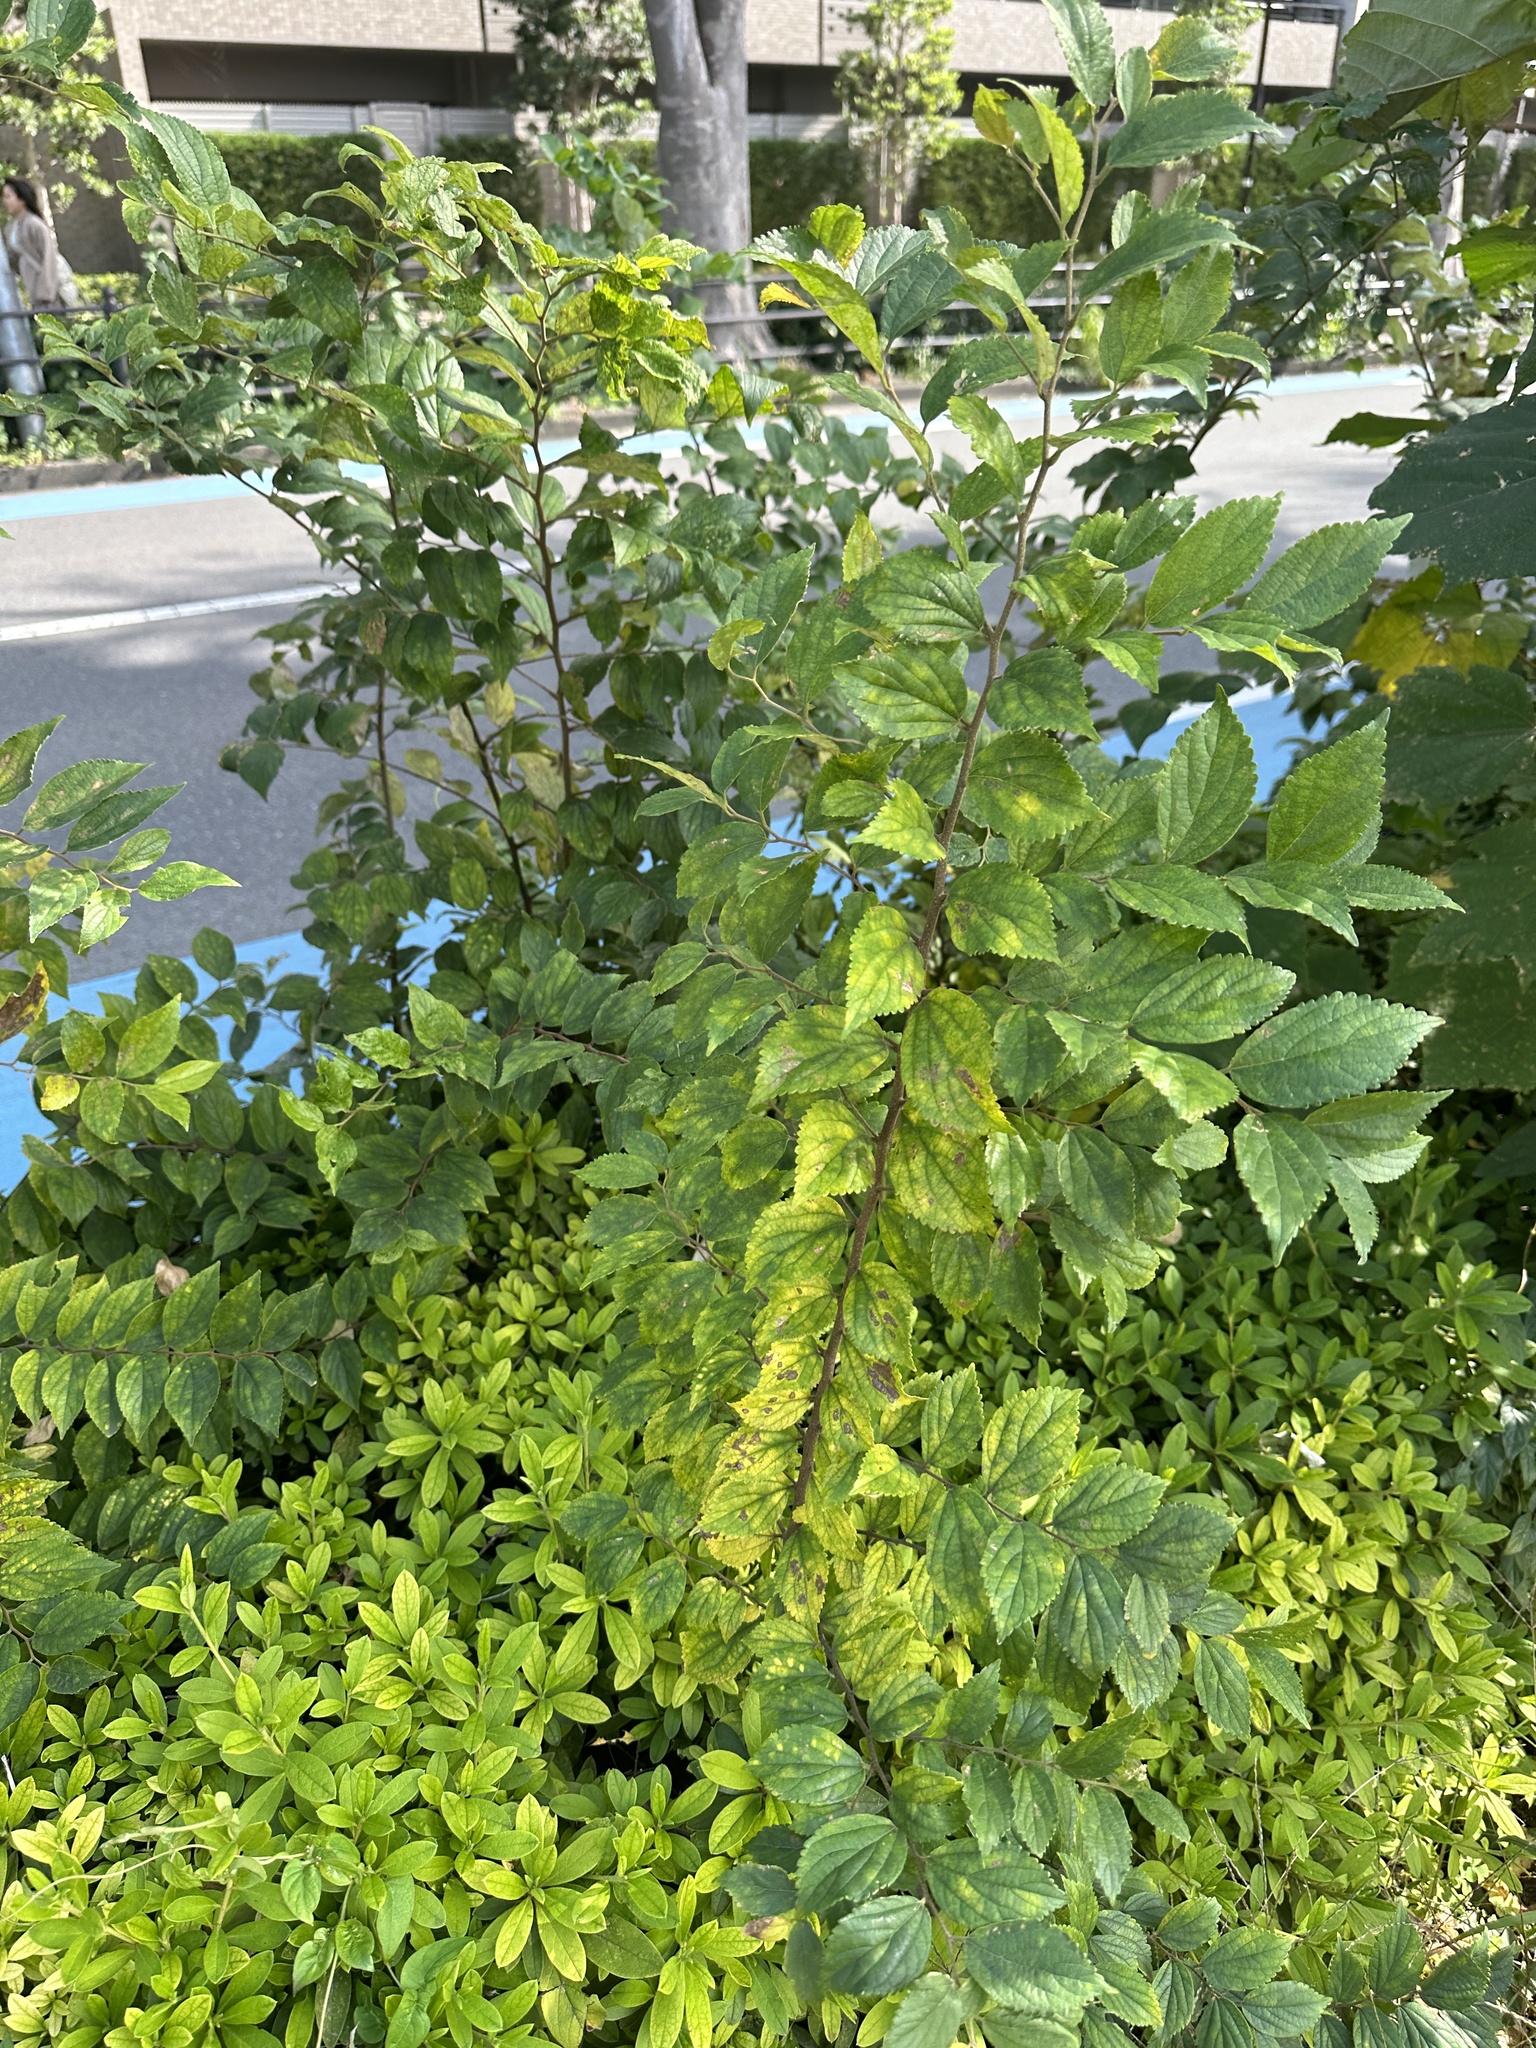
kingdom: Plantae
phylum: Tracheophyta
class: Magnoliopsida
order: Rosales
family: Cannabaceae
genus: Celtis
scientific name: Celtis sinensis
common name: Chinese hackberry
